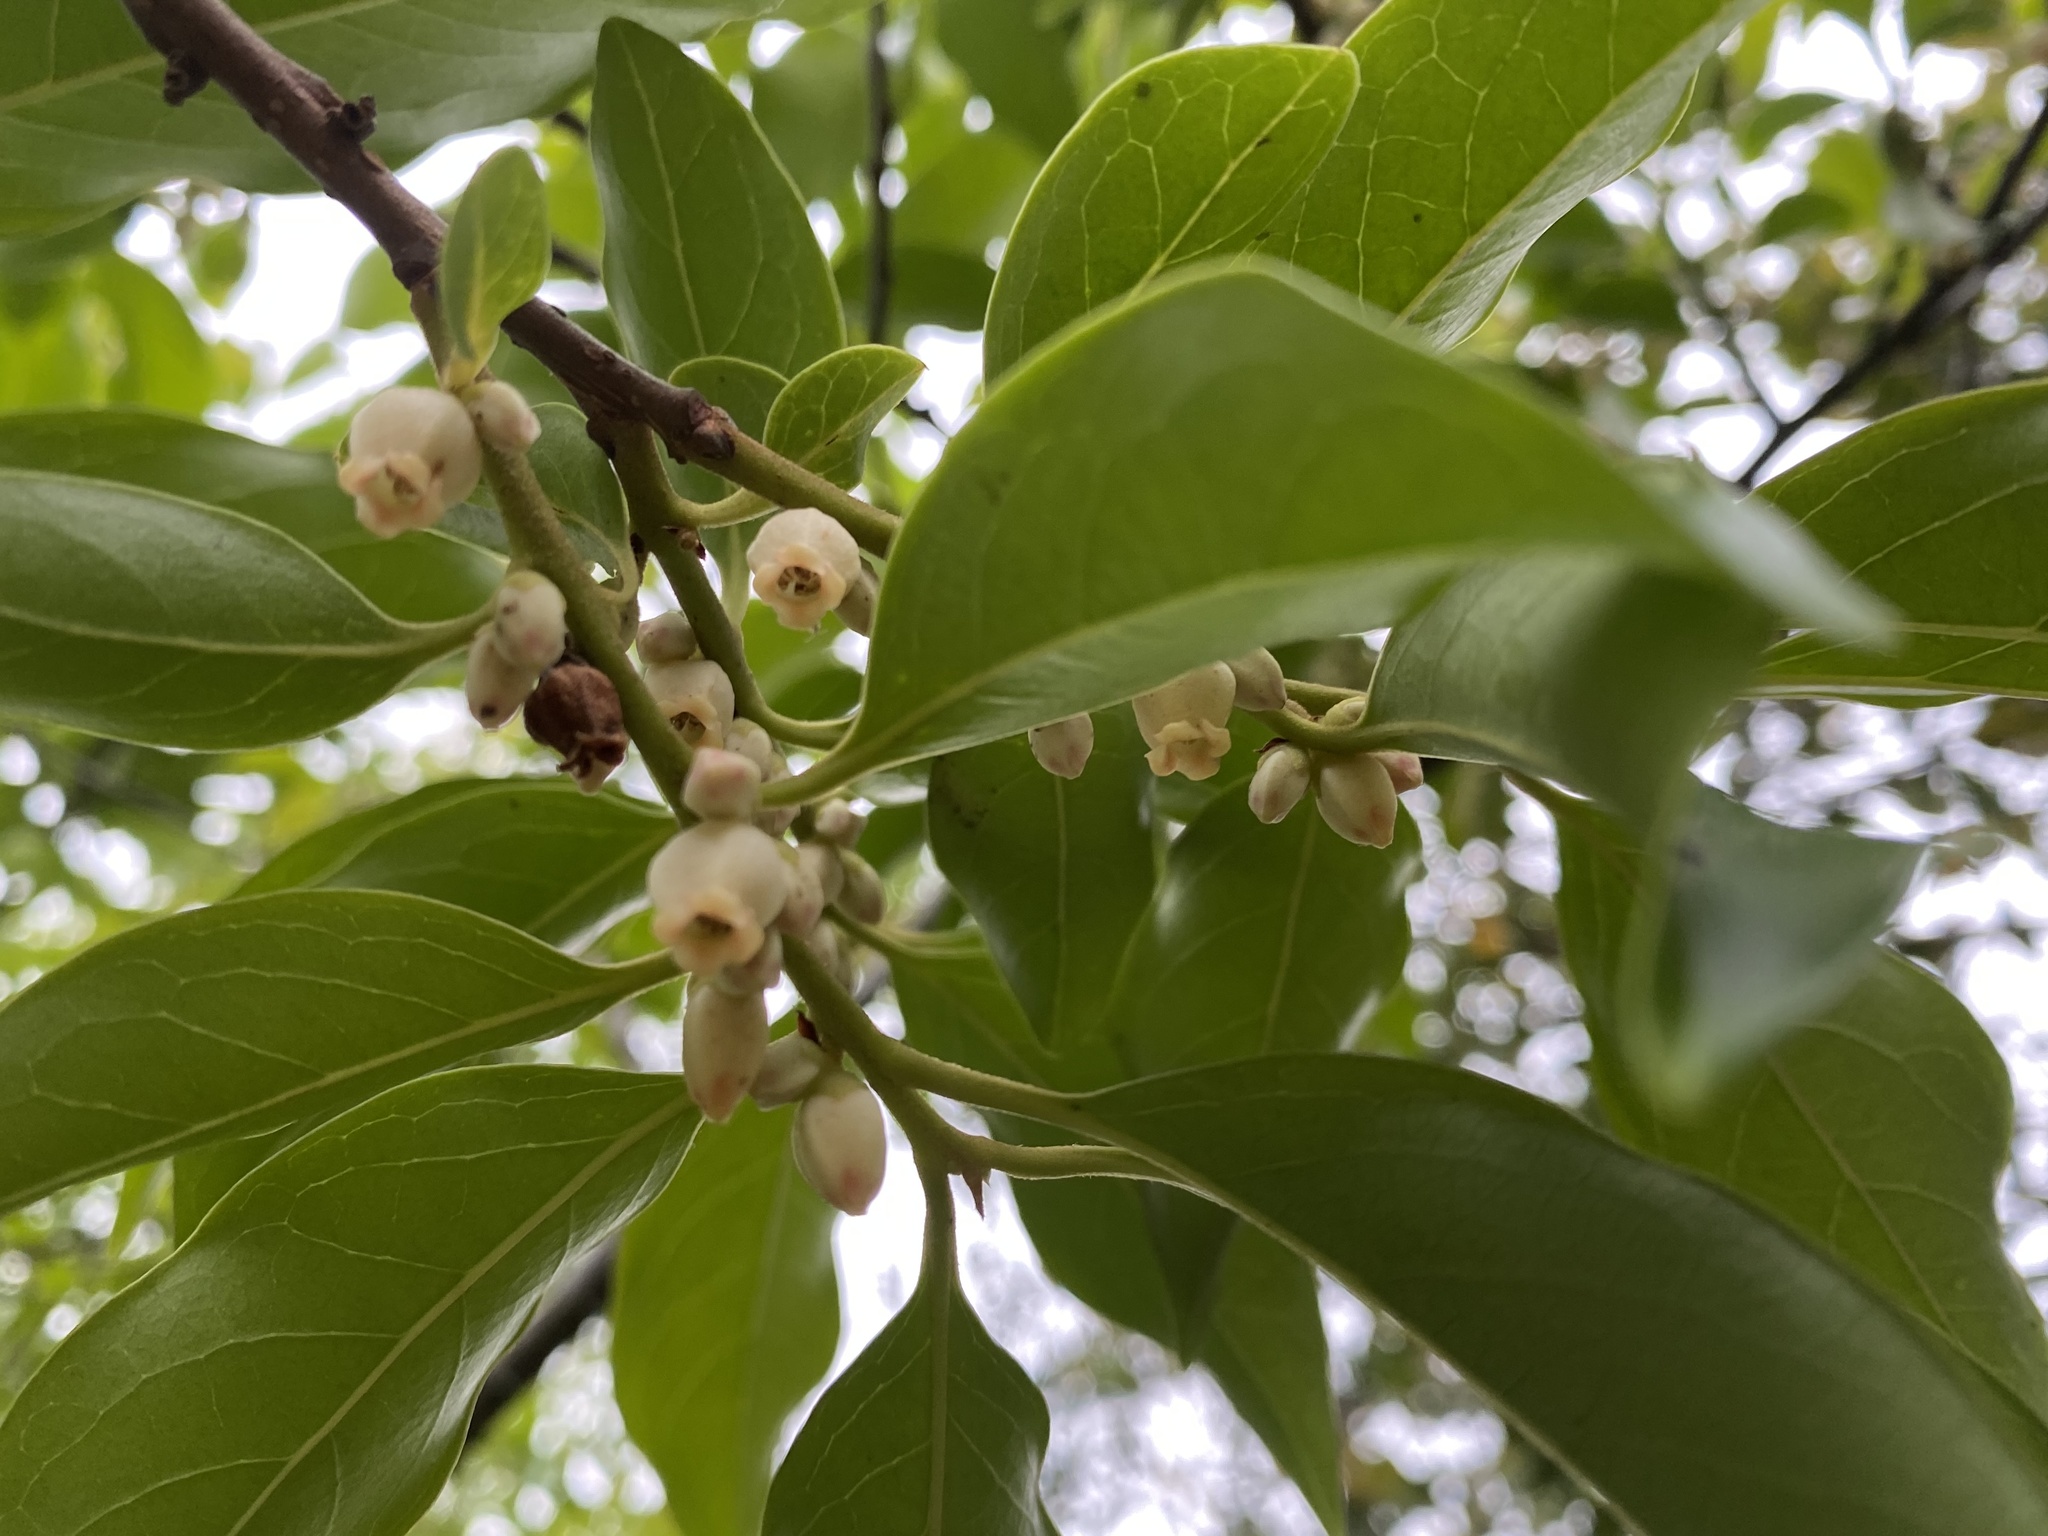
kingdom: Plantae
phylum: Tracheophyta
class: Magnoliopsida
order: Ericales
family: Ebenaceae
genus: Diospyros
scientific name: Diospyros morrisiana
